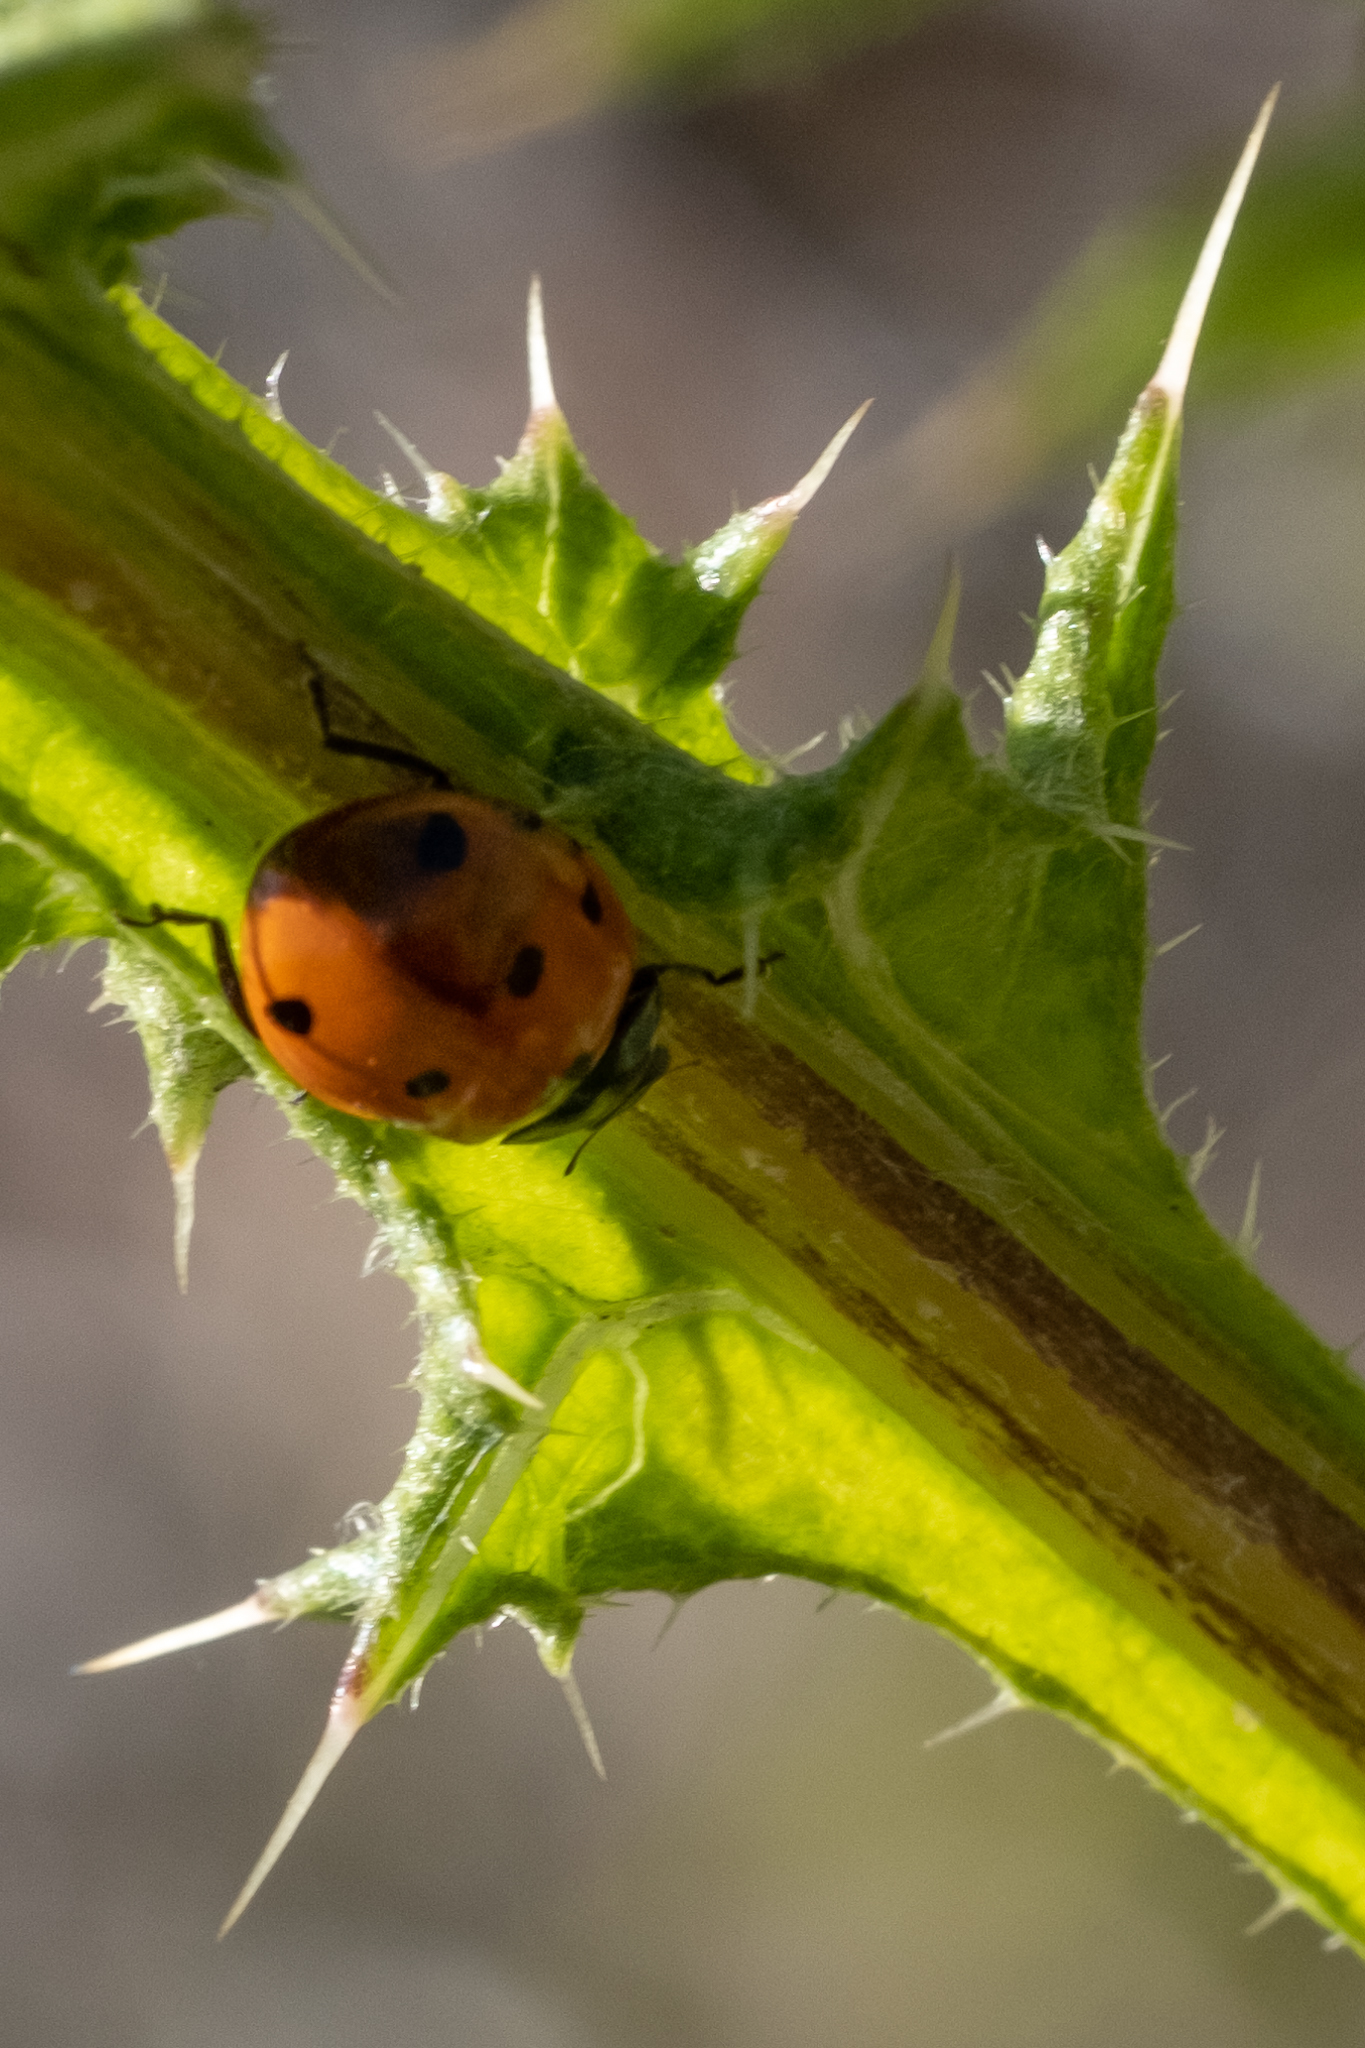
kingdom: Animalia
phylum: Arthropoda
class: Insecta
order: Coleoptera
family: Coccinellidae
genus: Coccinella
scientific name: Coccinella septempunctata
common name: Sevenspotted lady beetle
